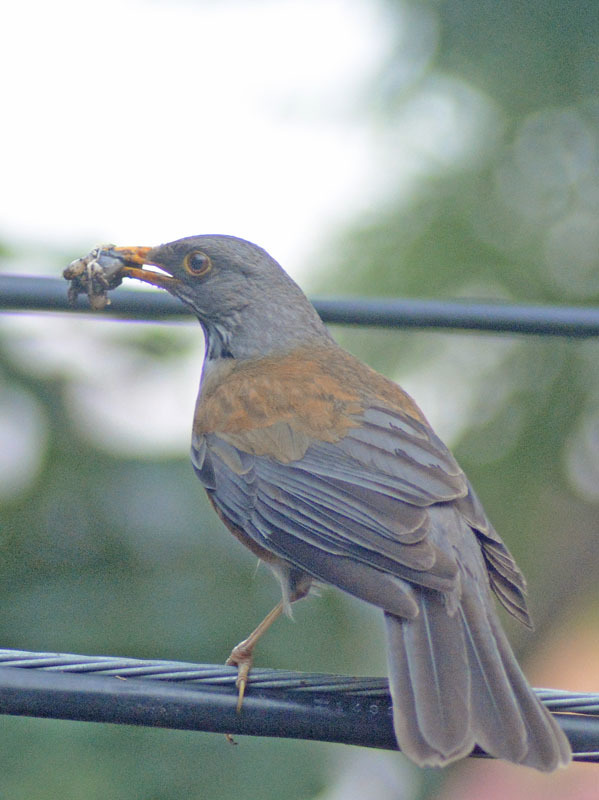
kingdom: Animalia
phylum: Chordata
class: Aves
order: Passeriformes
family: Turdidae
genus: Turdus
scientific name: Turdus rufopalliatus
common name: Rufous-backed robin
